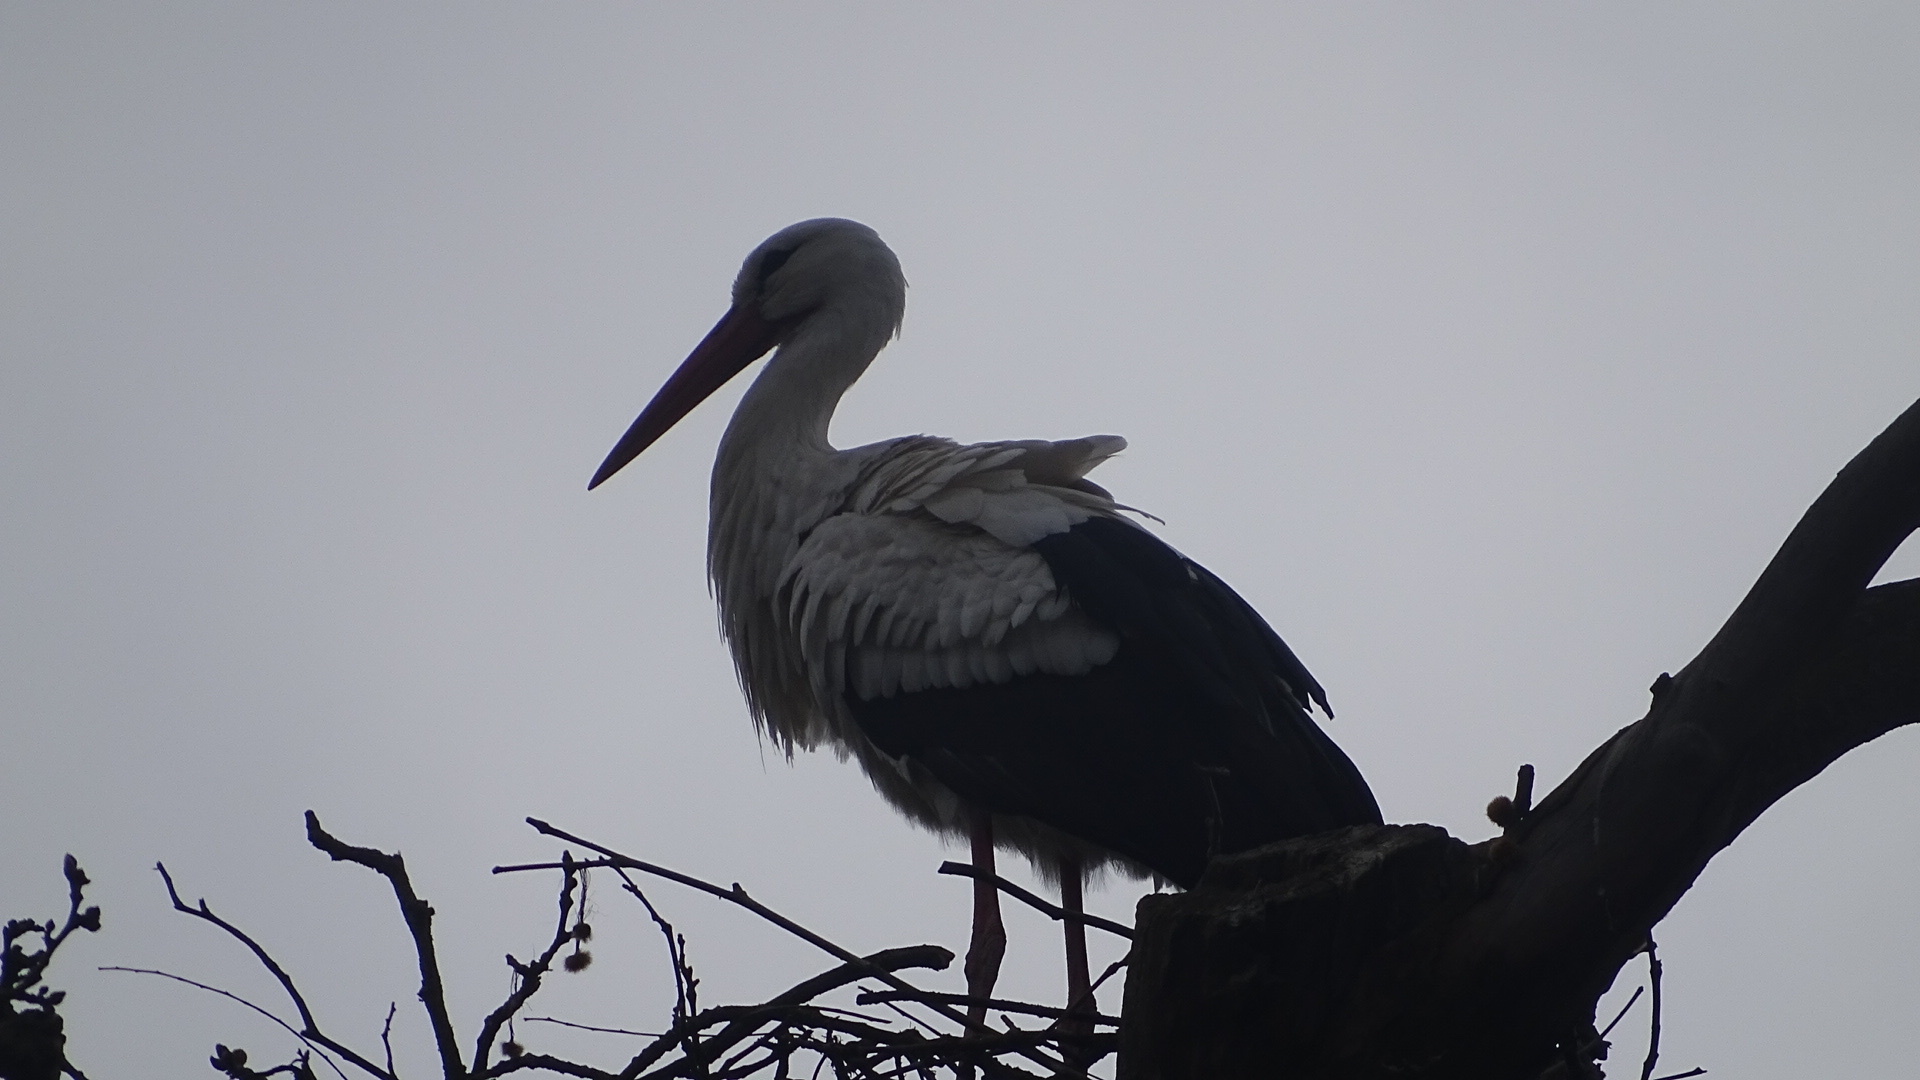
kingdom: Animalia
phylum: Chordata
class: Aves
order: Ciconiiformes
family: Ciconiidae
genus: Ciconia
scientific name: Ciconia ciconia
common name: White stork
